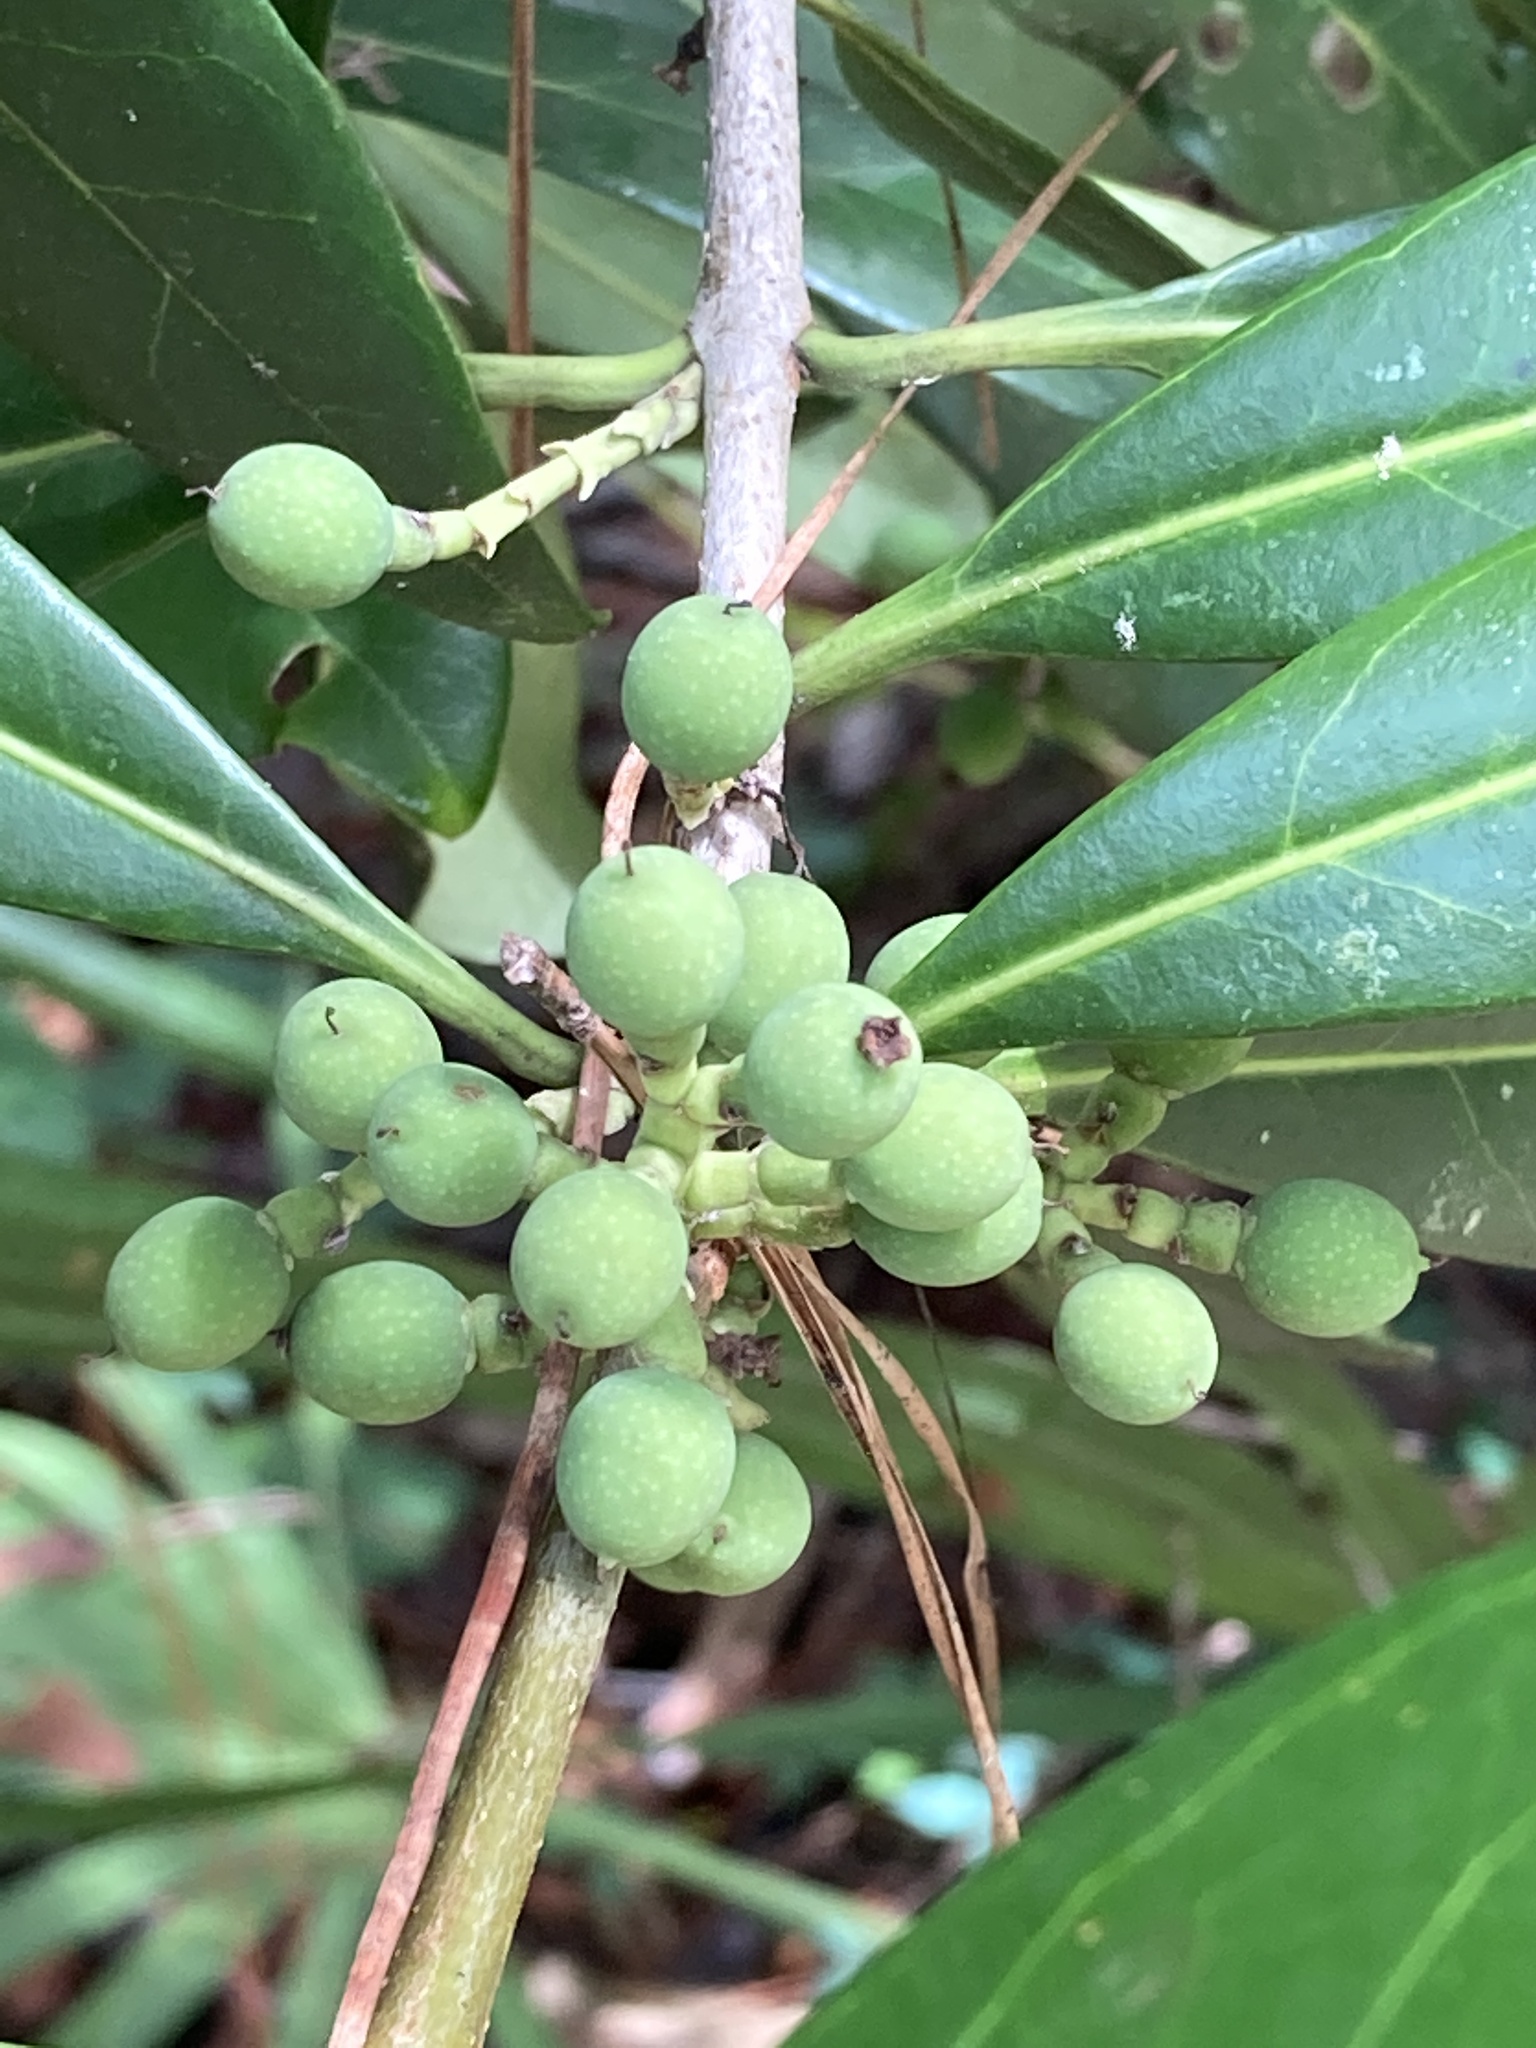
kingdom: Plantae
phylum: Tracheophyta
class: Magnoliopsida
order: Lamiales
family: Oleaceae
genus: Cartrema
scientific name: Cartrema americana
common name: Devilwood
